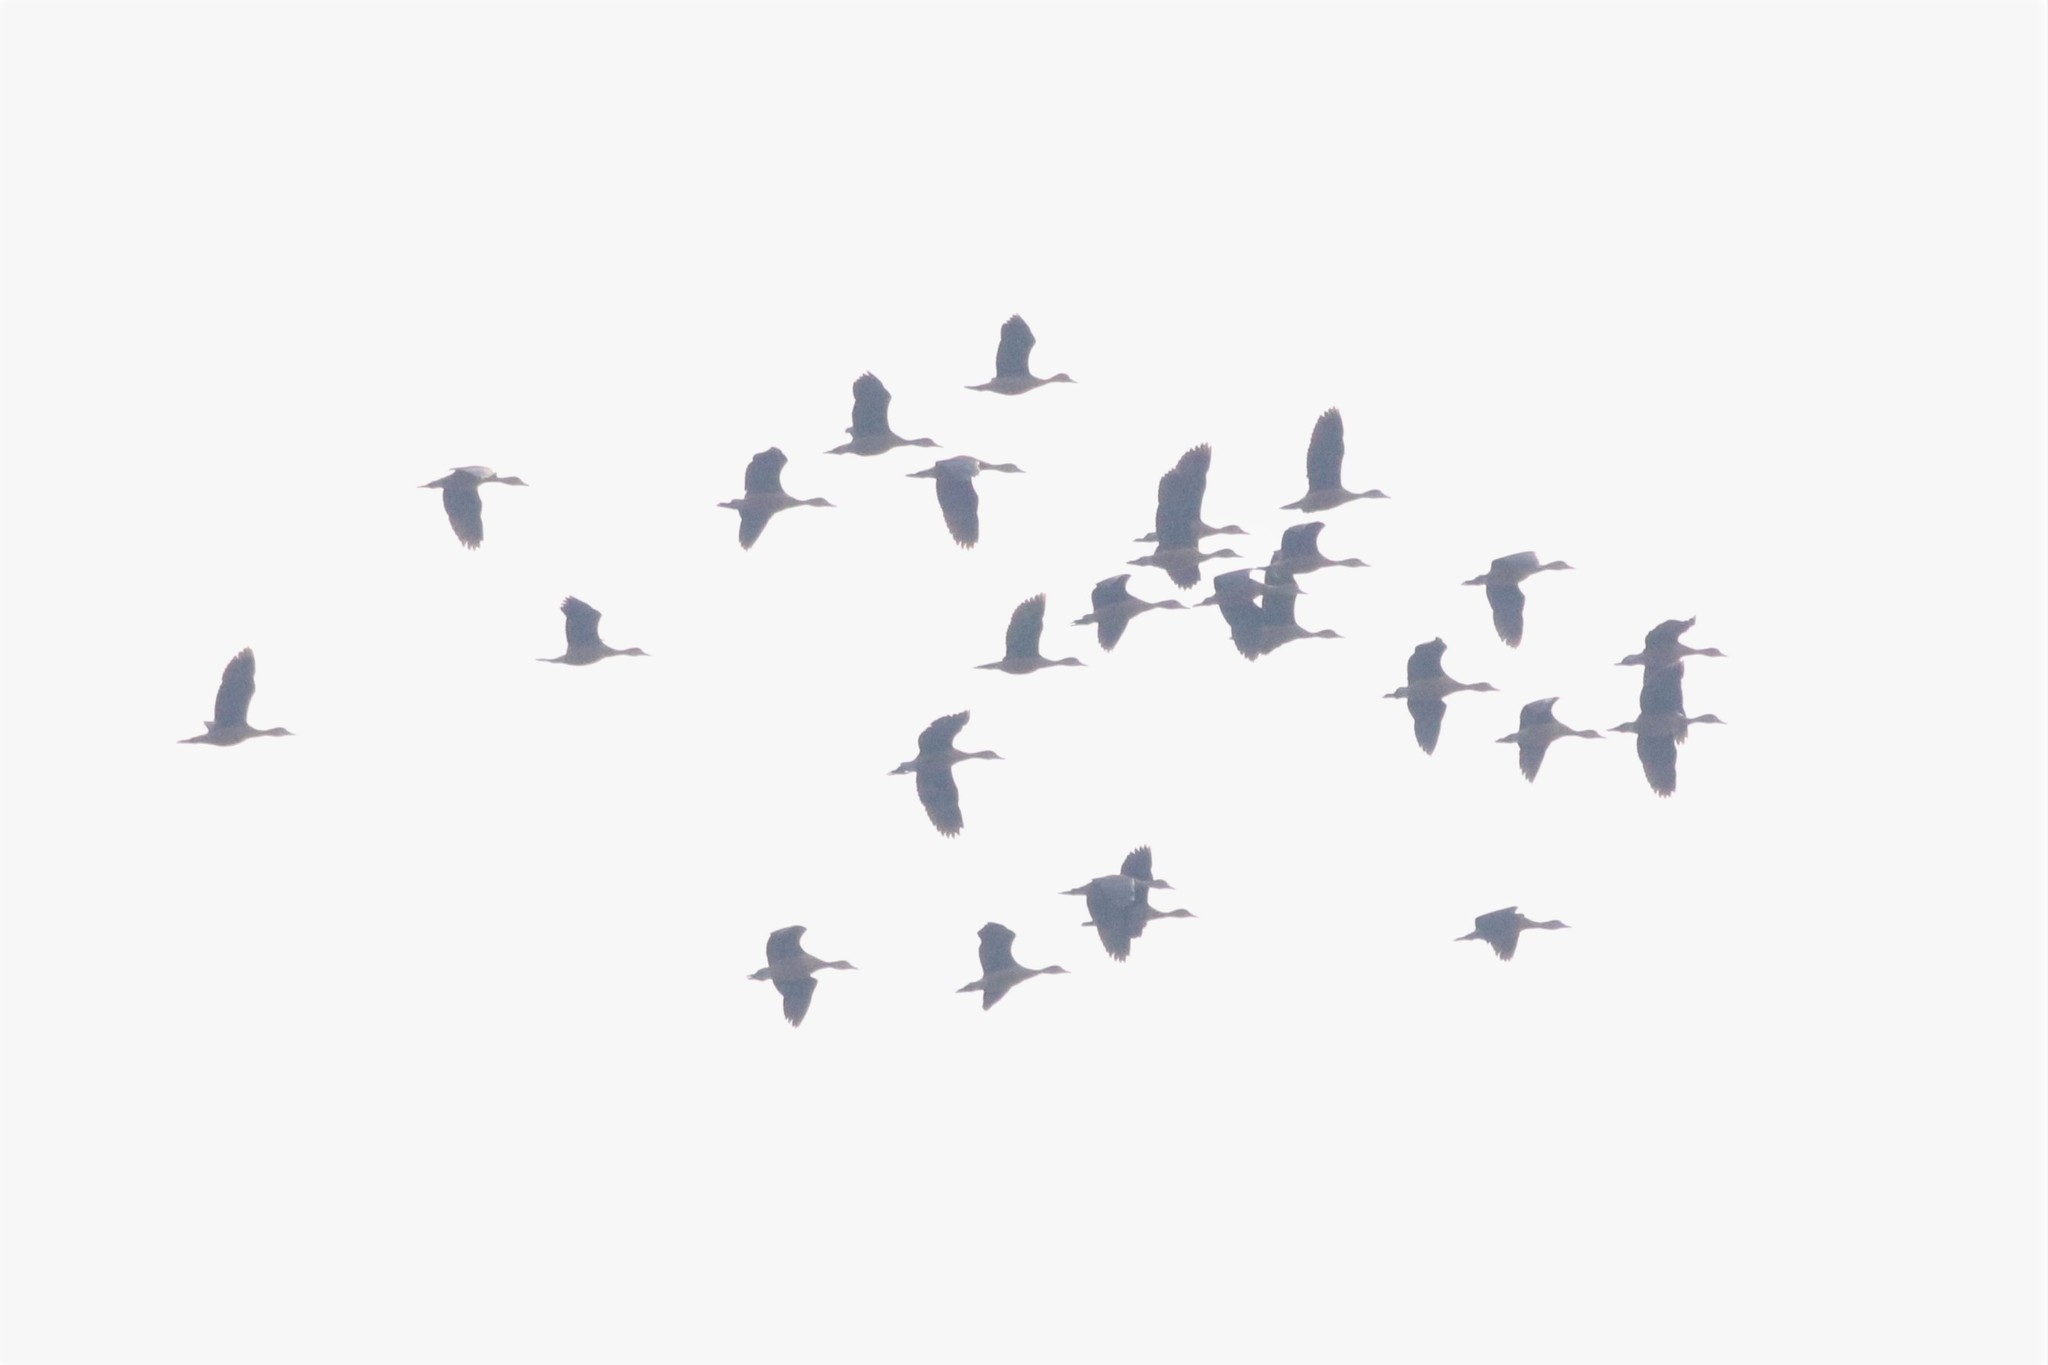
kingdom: Animalia
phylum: Chordata
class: Aves
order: Anseriformes
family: Anatidae
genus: Dendrocygna
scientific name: Dendrocygna javanica
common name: Lesser whistling-duck
